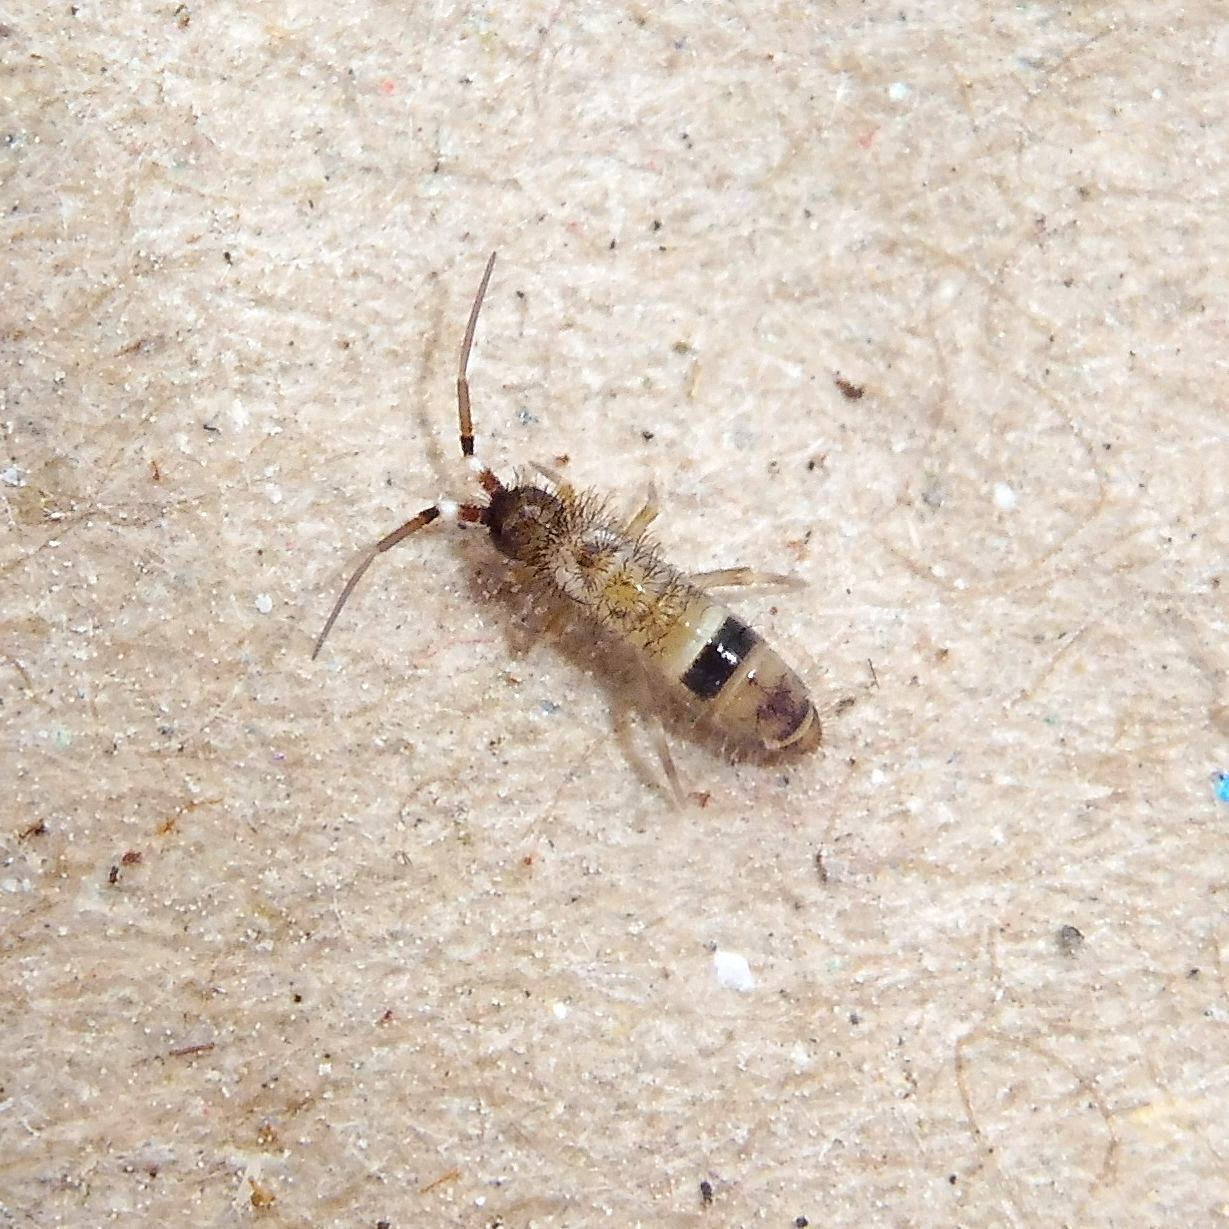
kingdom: Animalia
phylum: Arthropoda
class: Collembola
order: Entomobryomorpha
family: Orchesellidae
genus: Orchesella
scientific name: Orchesella cincta
